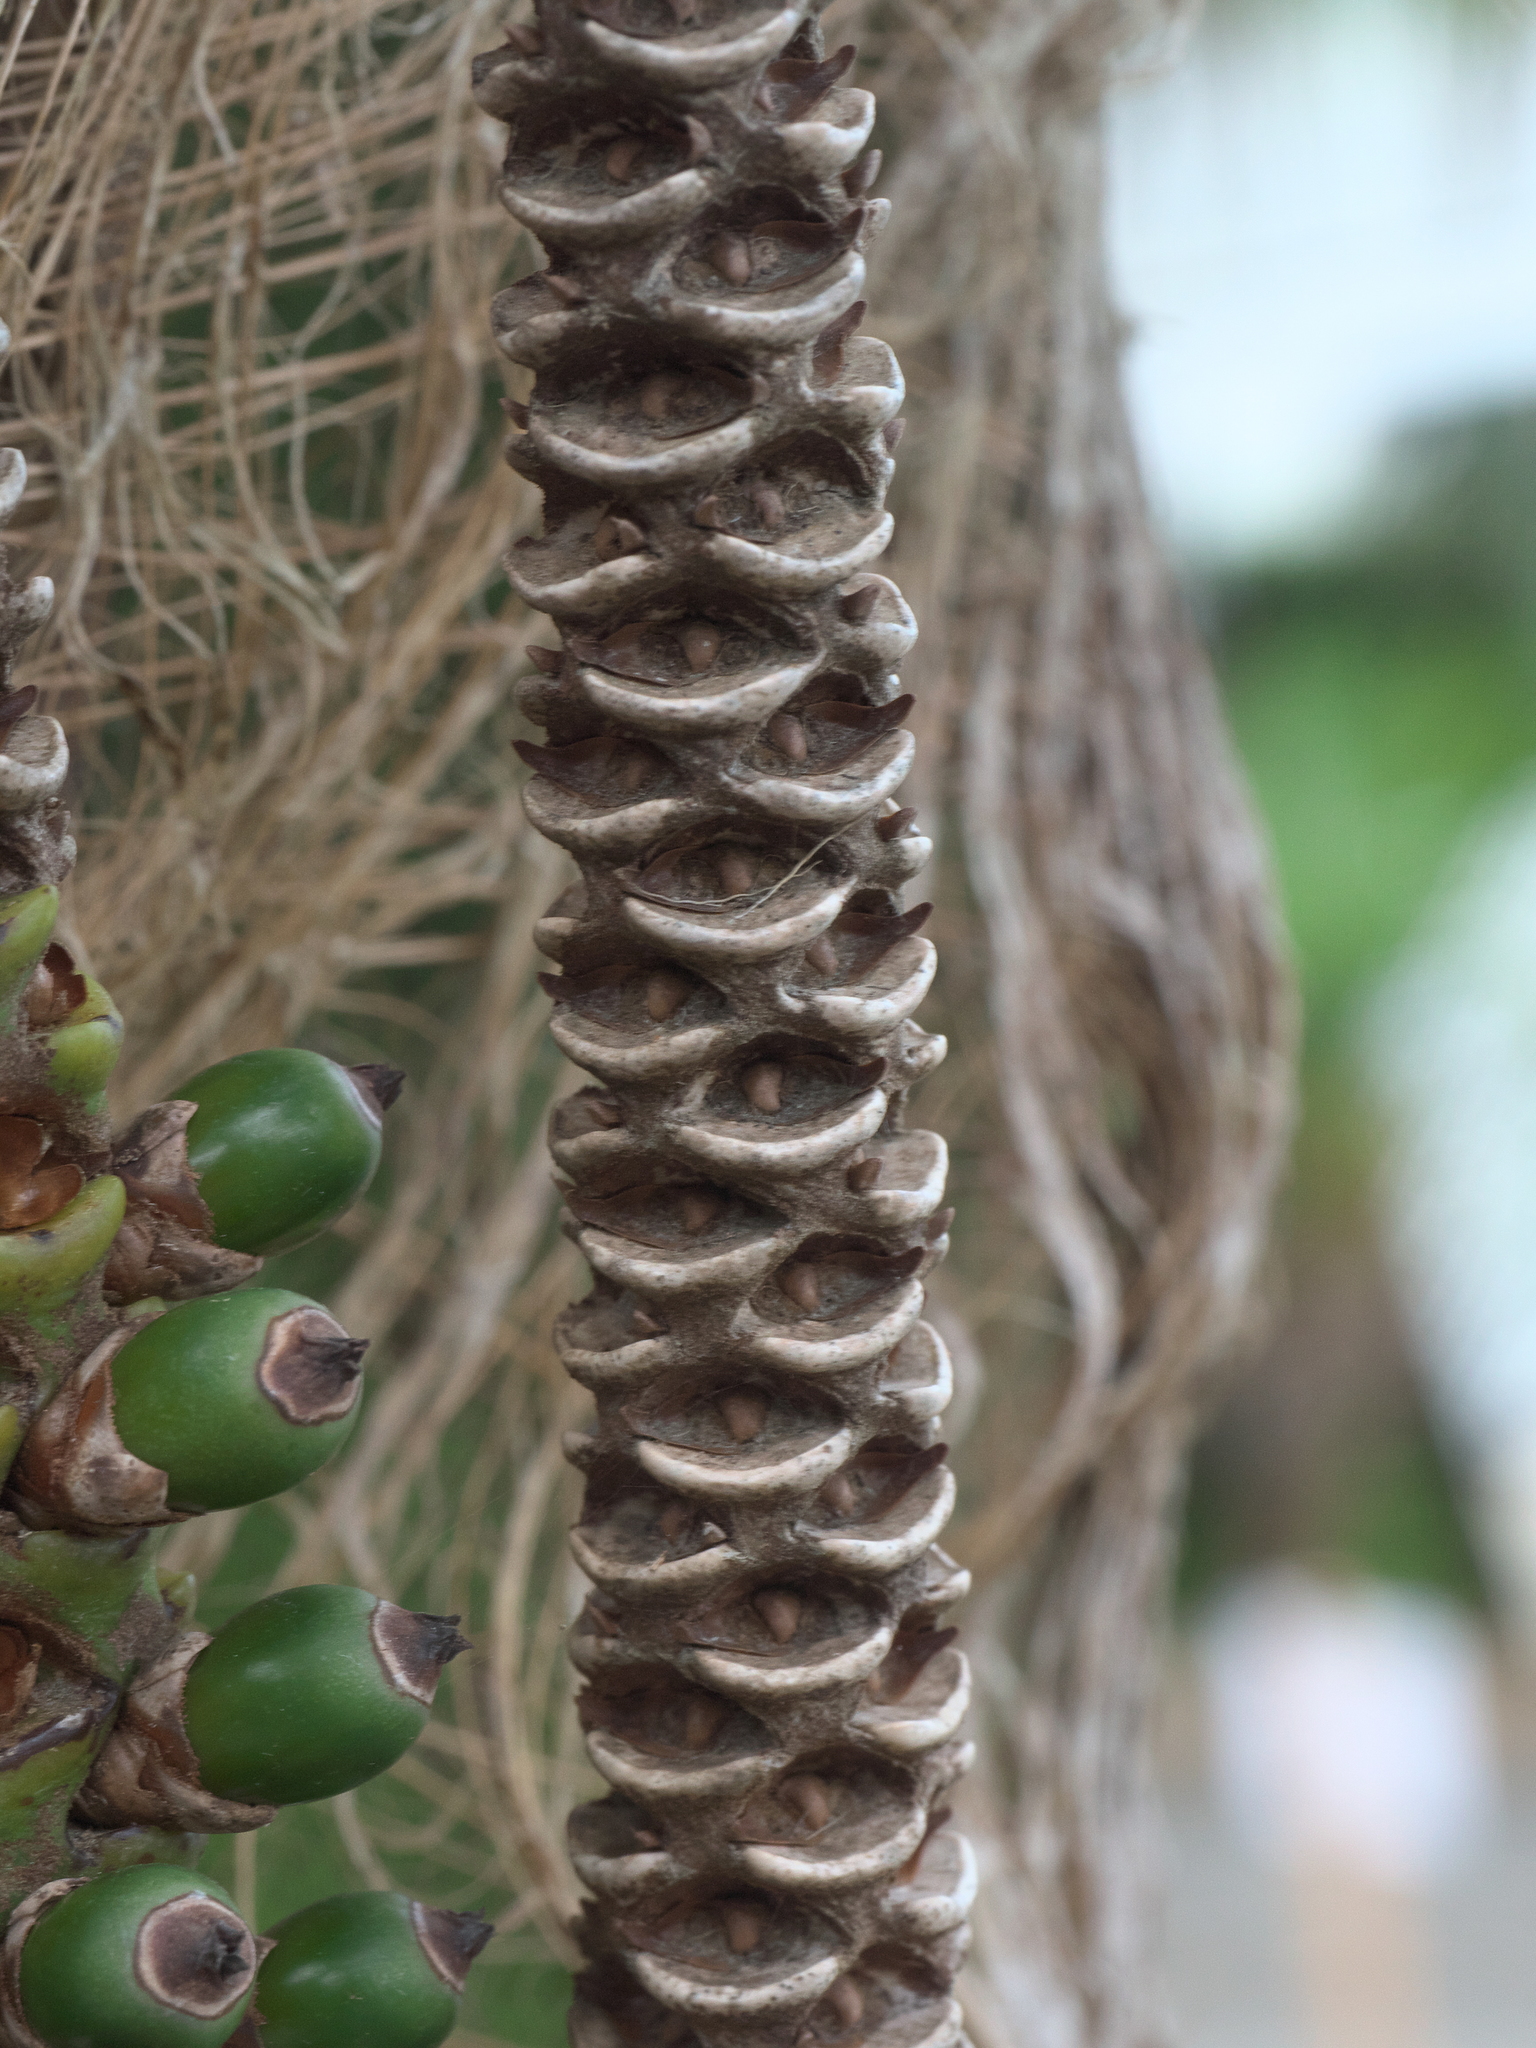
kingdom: Plantae
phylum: Tracheophyta
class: Liliopsida
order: Arecales
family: Arecaceae
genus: Rhopalostylis
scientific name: Rhopalostylis sapida
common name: Feather-duster palm
